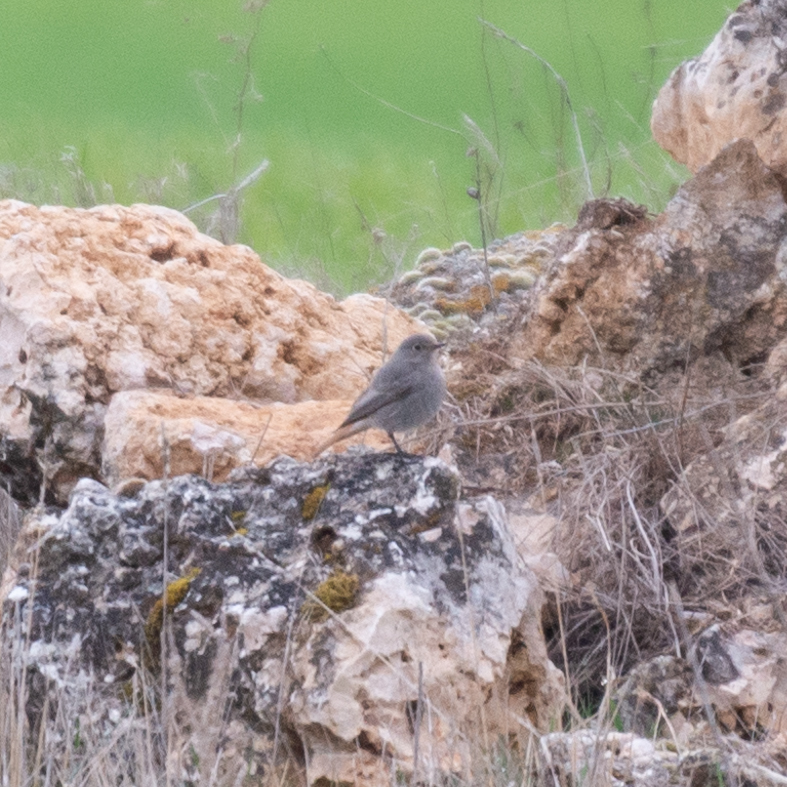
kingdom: Animalia
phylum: Chordata
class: Aves
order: Passeriformes
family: Muscicapidae
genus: Phoenicurus
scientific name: Phoenicurus ochruros
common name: Black redstart
